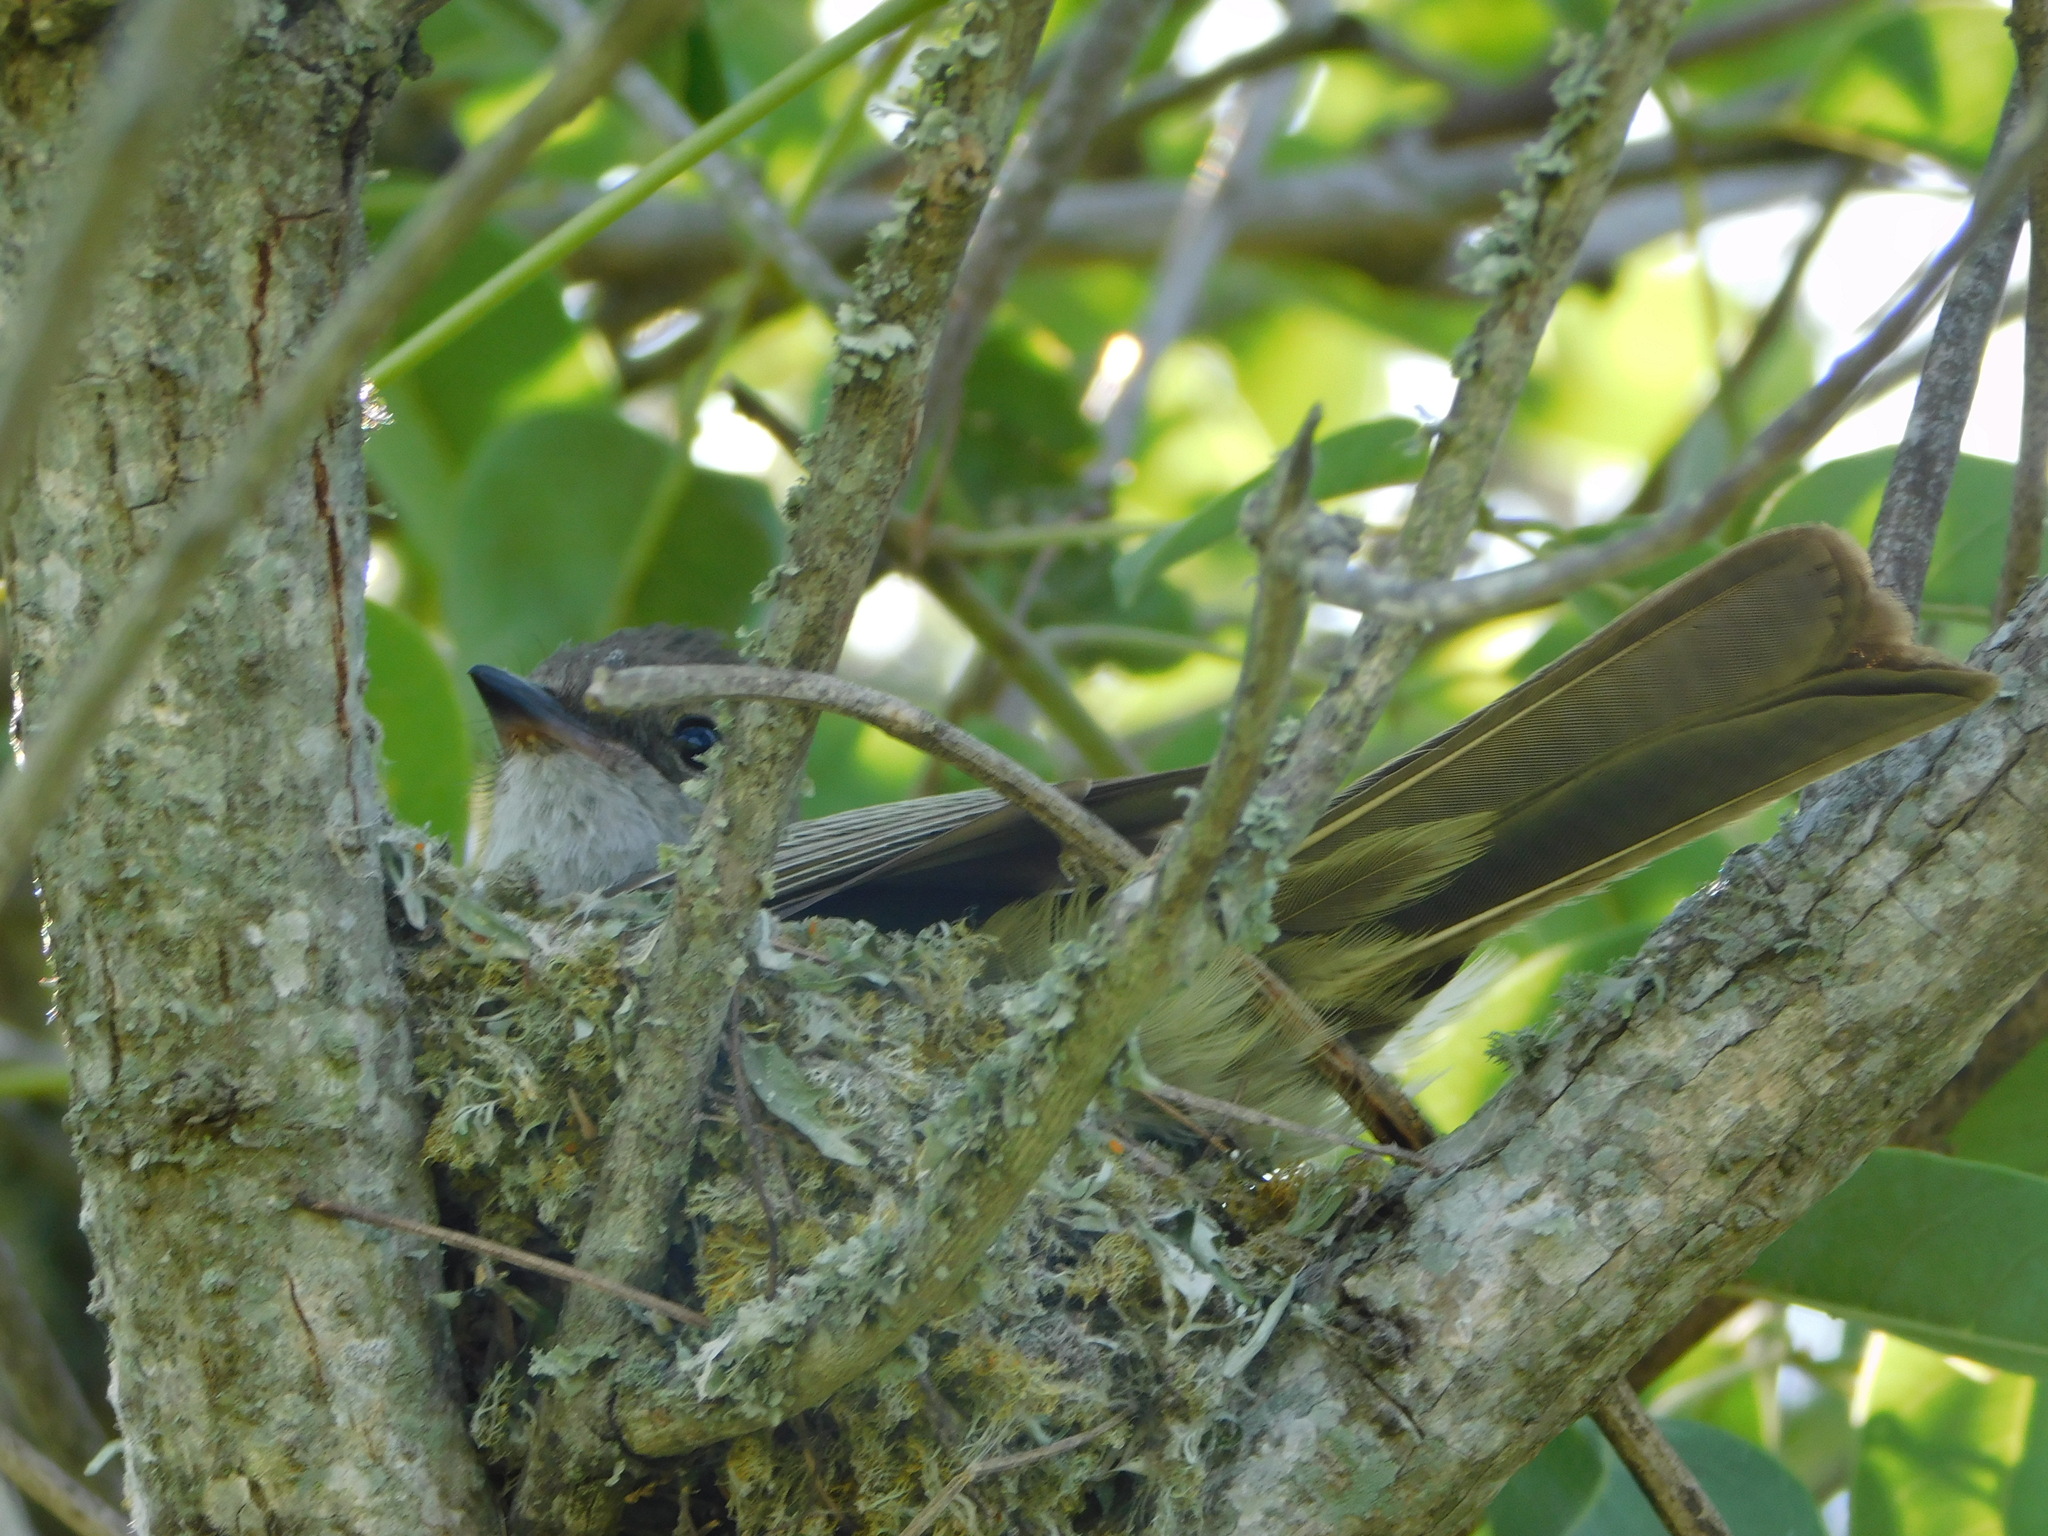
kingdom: Animalia
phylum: Chordata
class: Aves
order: Passeriformes
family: Tyrannidae
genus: Elaenia
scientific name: Elaenia spectabilis
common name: Large elaenia
